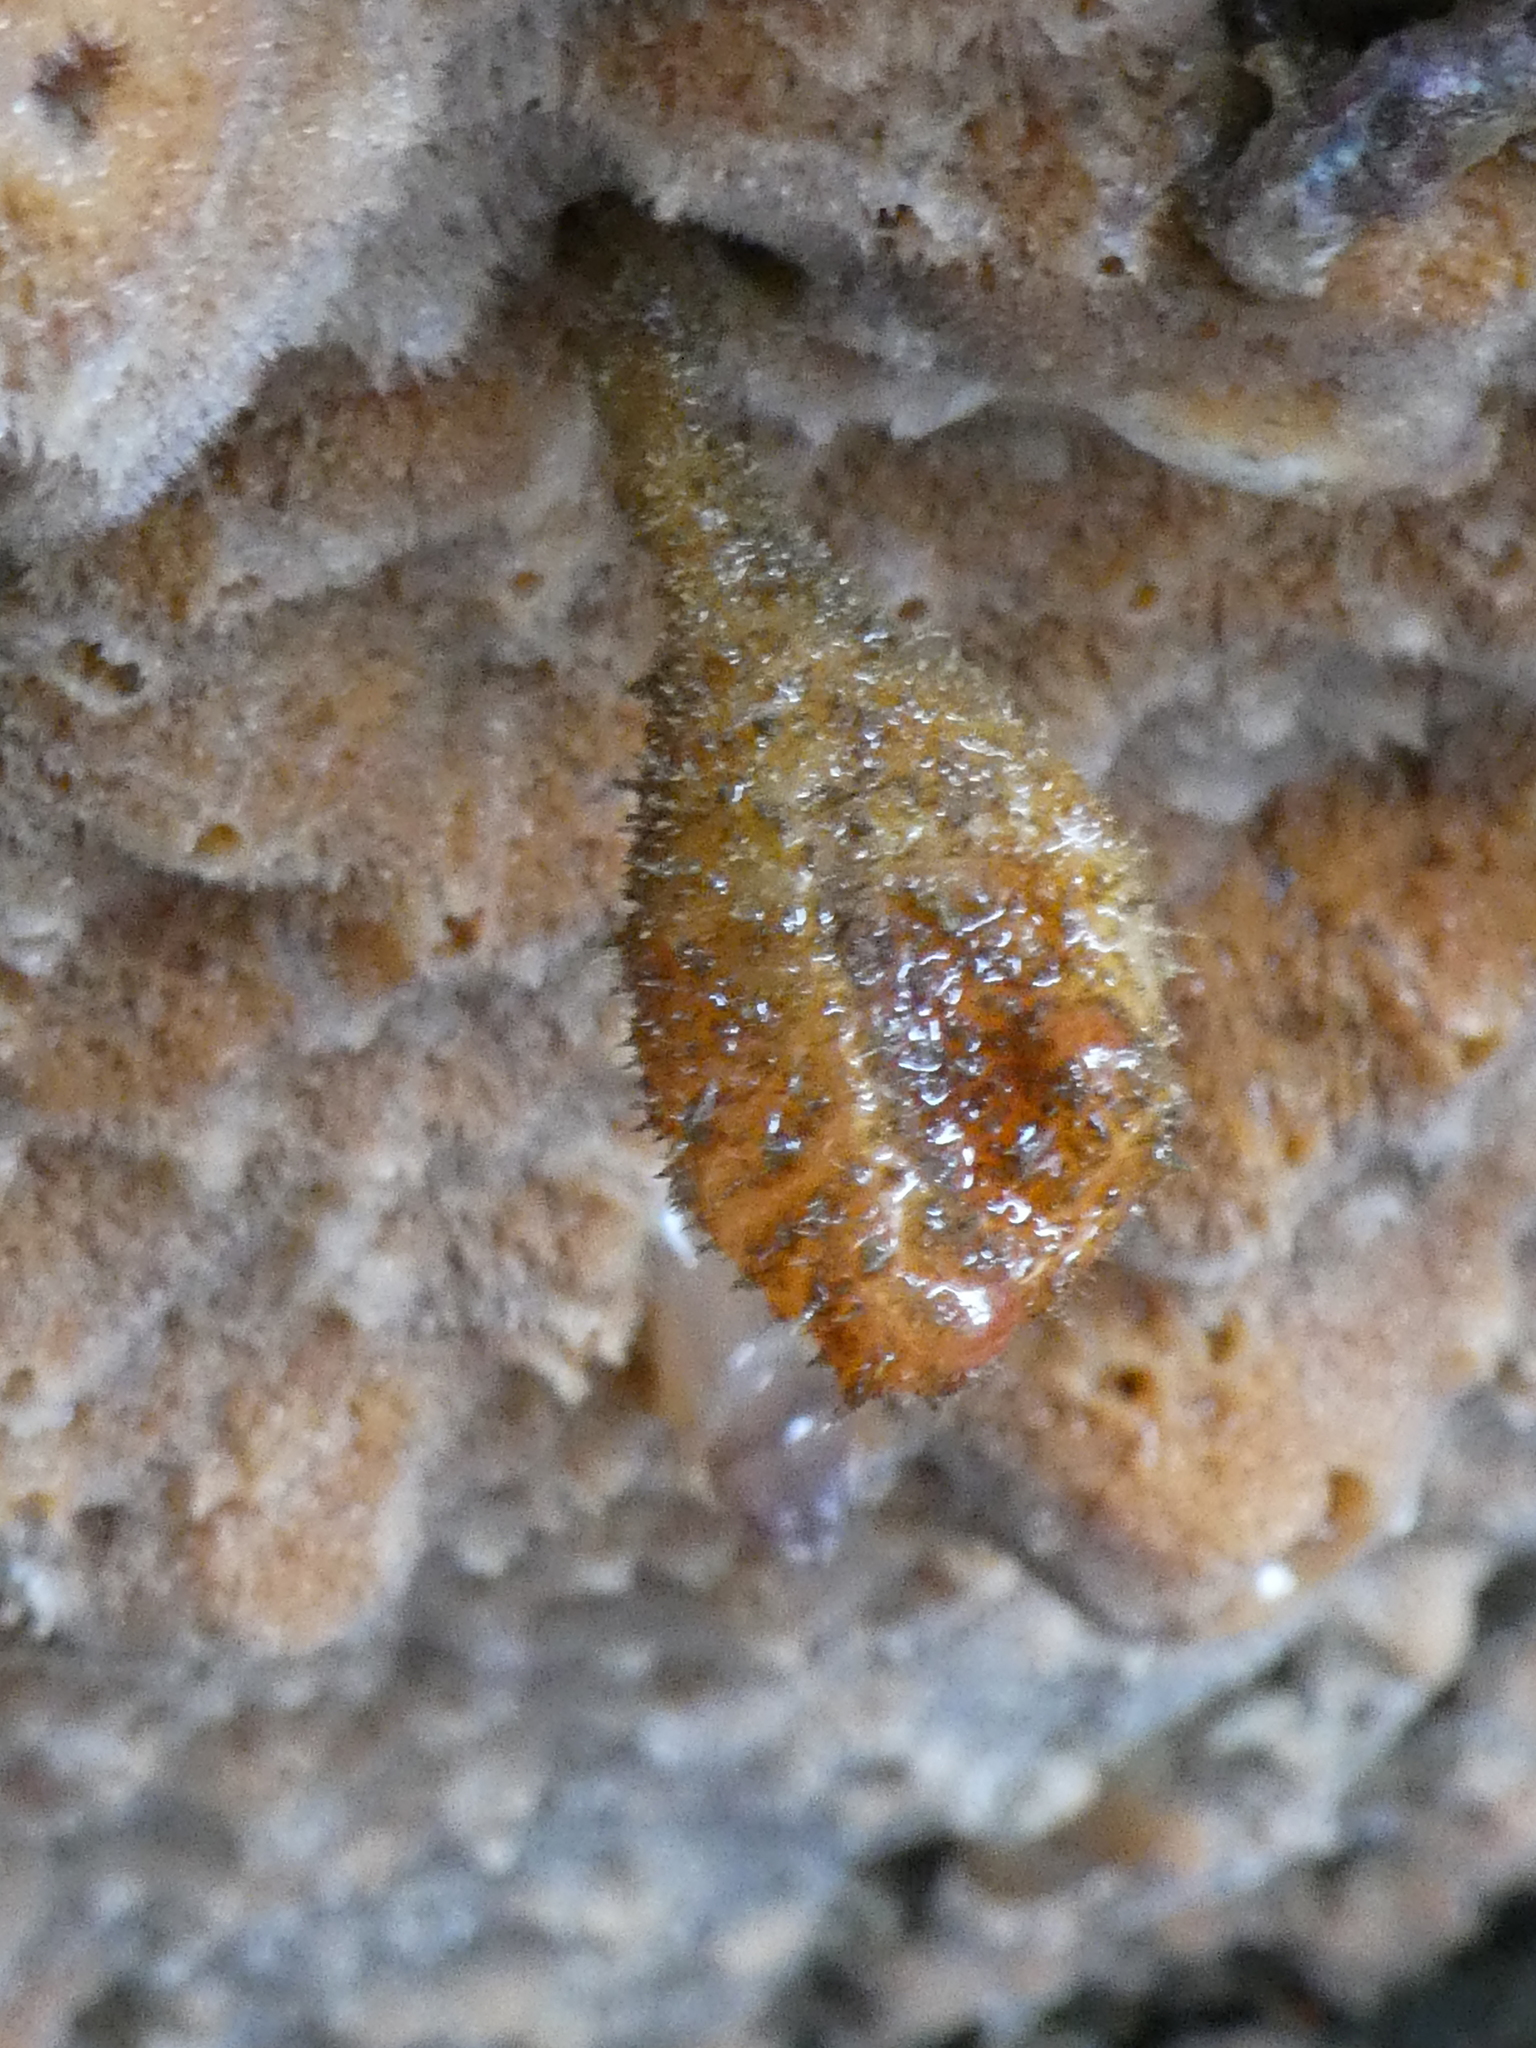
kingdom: Animalia
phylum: Chordata
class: Ascidiacea
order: Stolidobranchia
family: Pyuridae
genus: Boltenia
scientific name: Boltenia villosa
